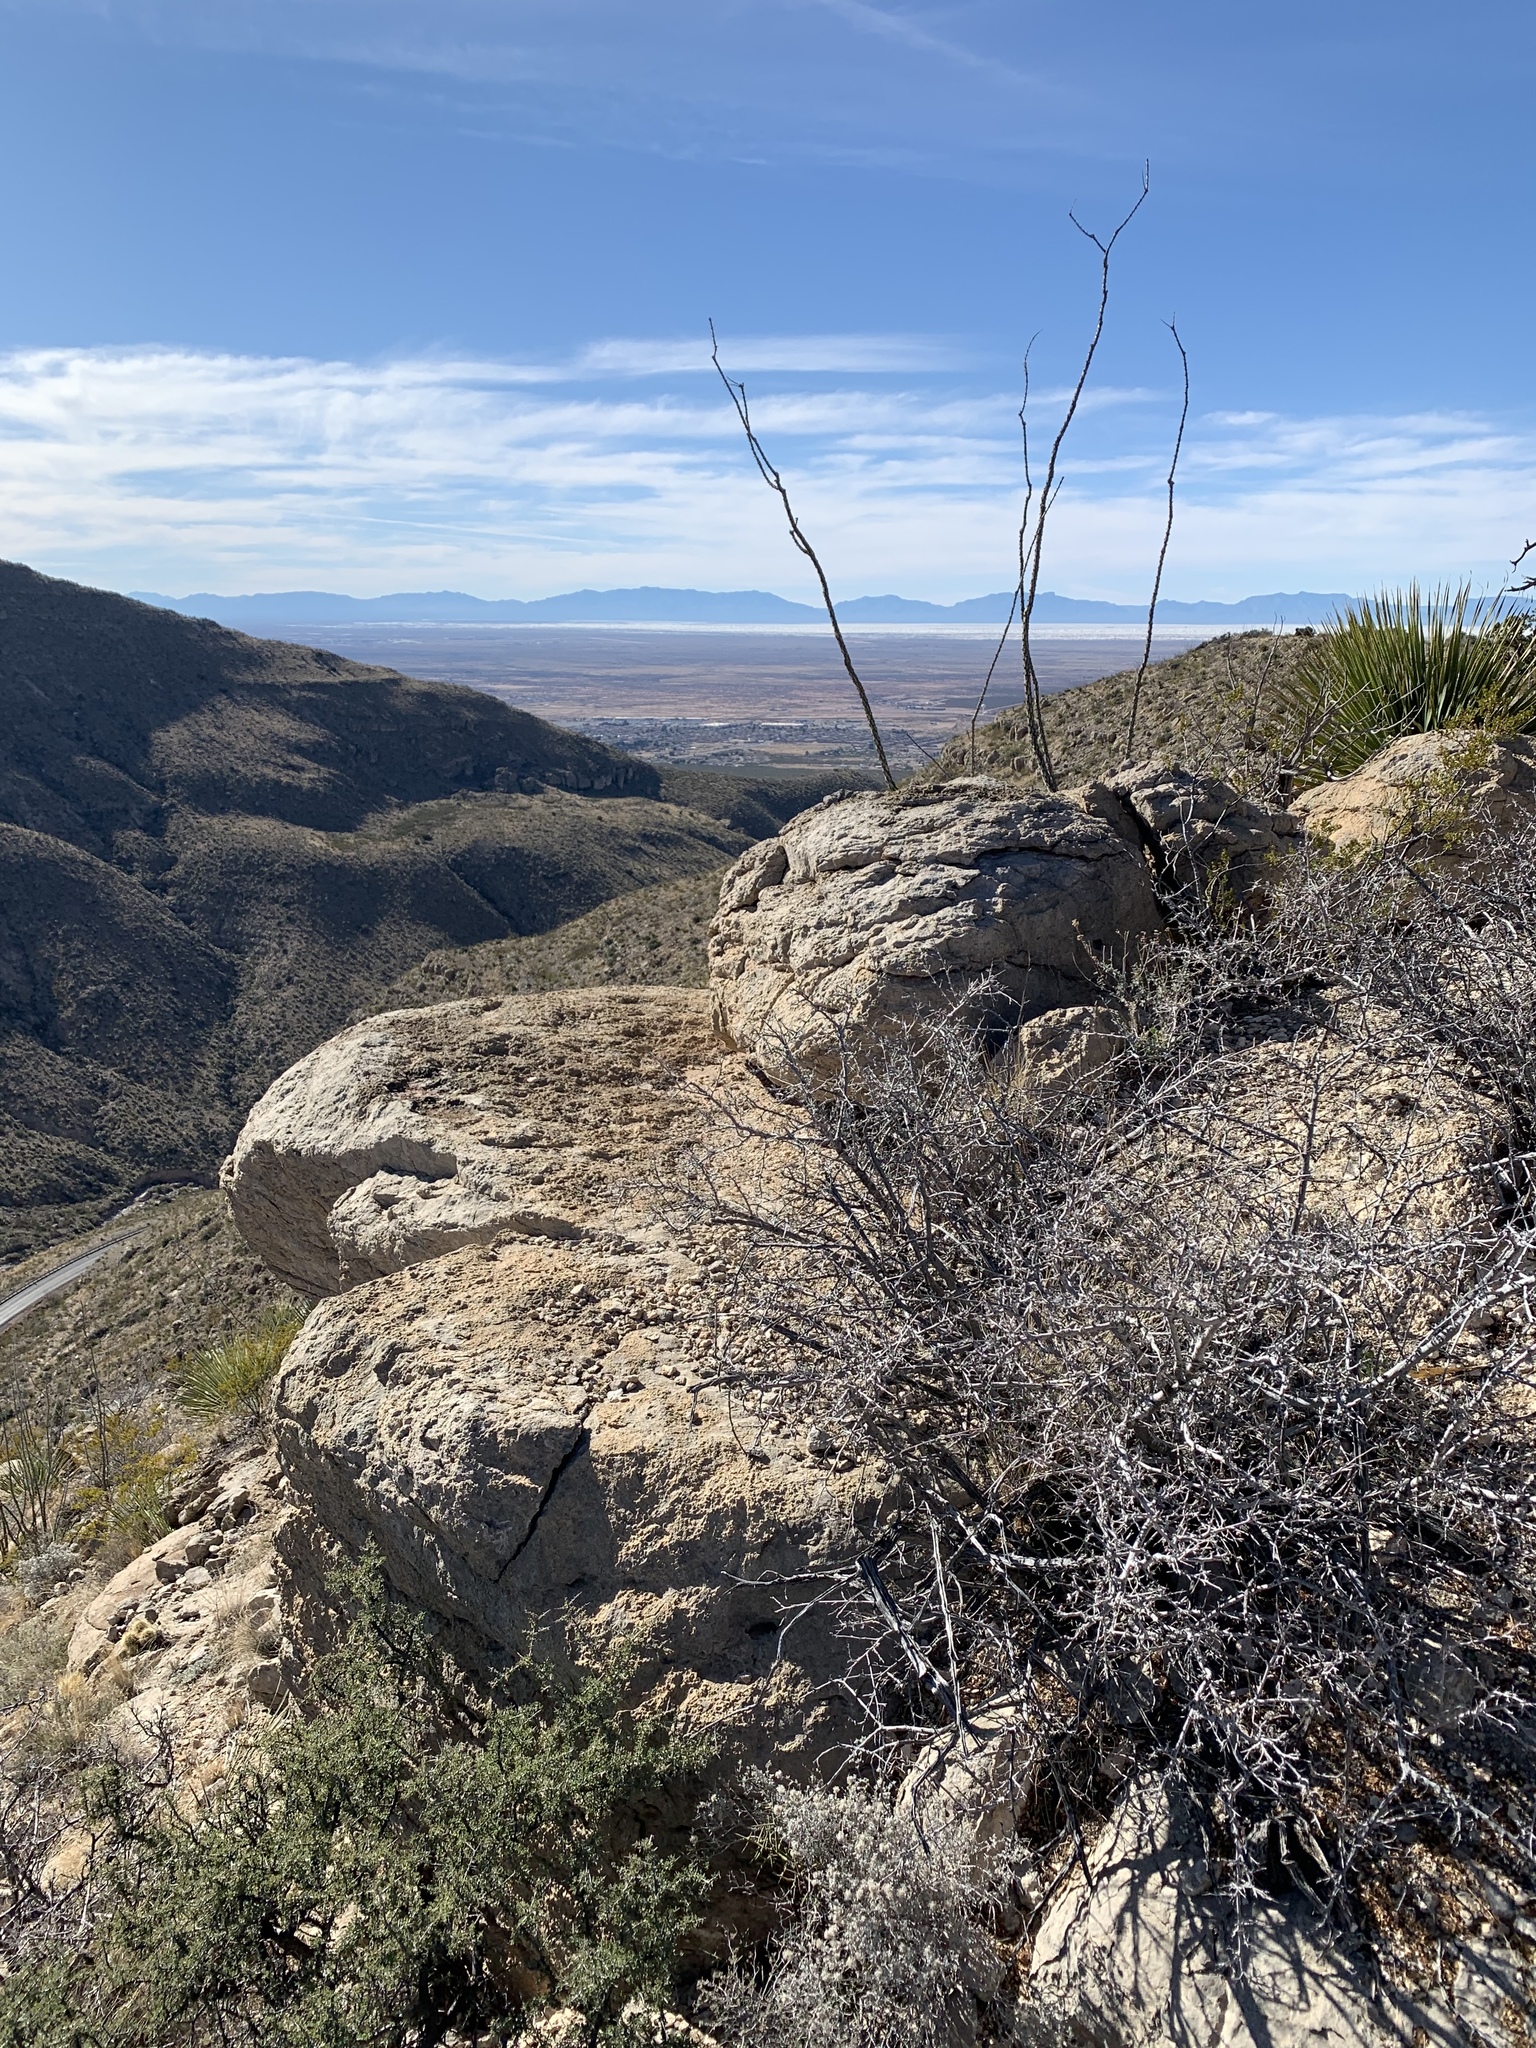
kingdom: Plantae
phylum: Tracheophyta
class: Magnoliopsida
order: Ericales
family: Fouquieriaceae
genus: Fouquieria
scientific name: Fouquieria splendens
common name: Vine-cactus
